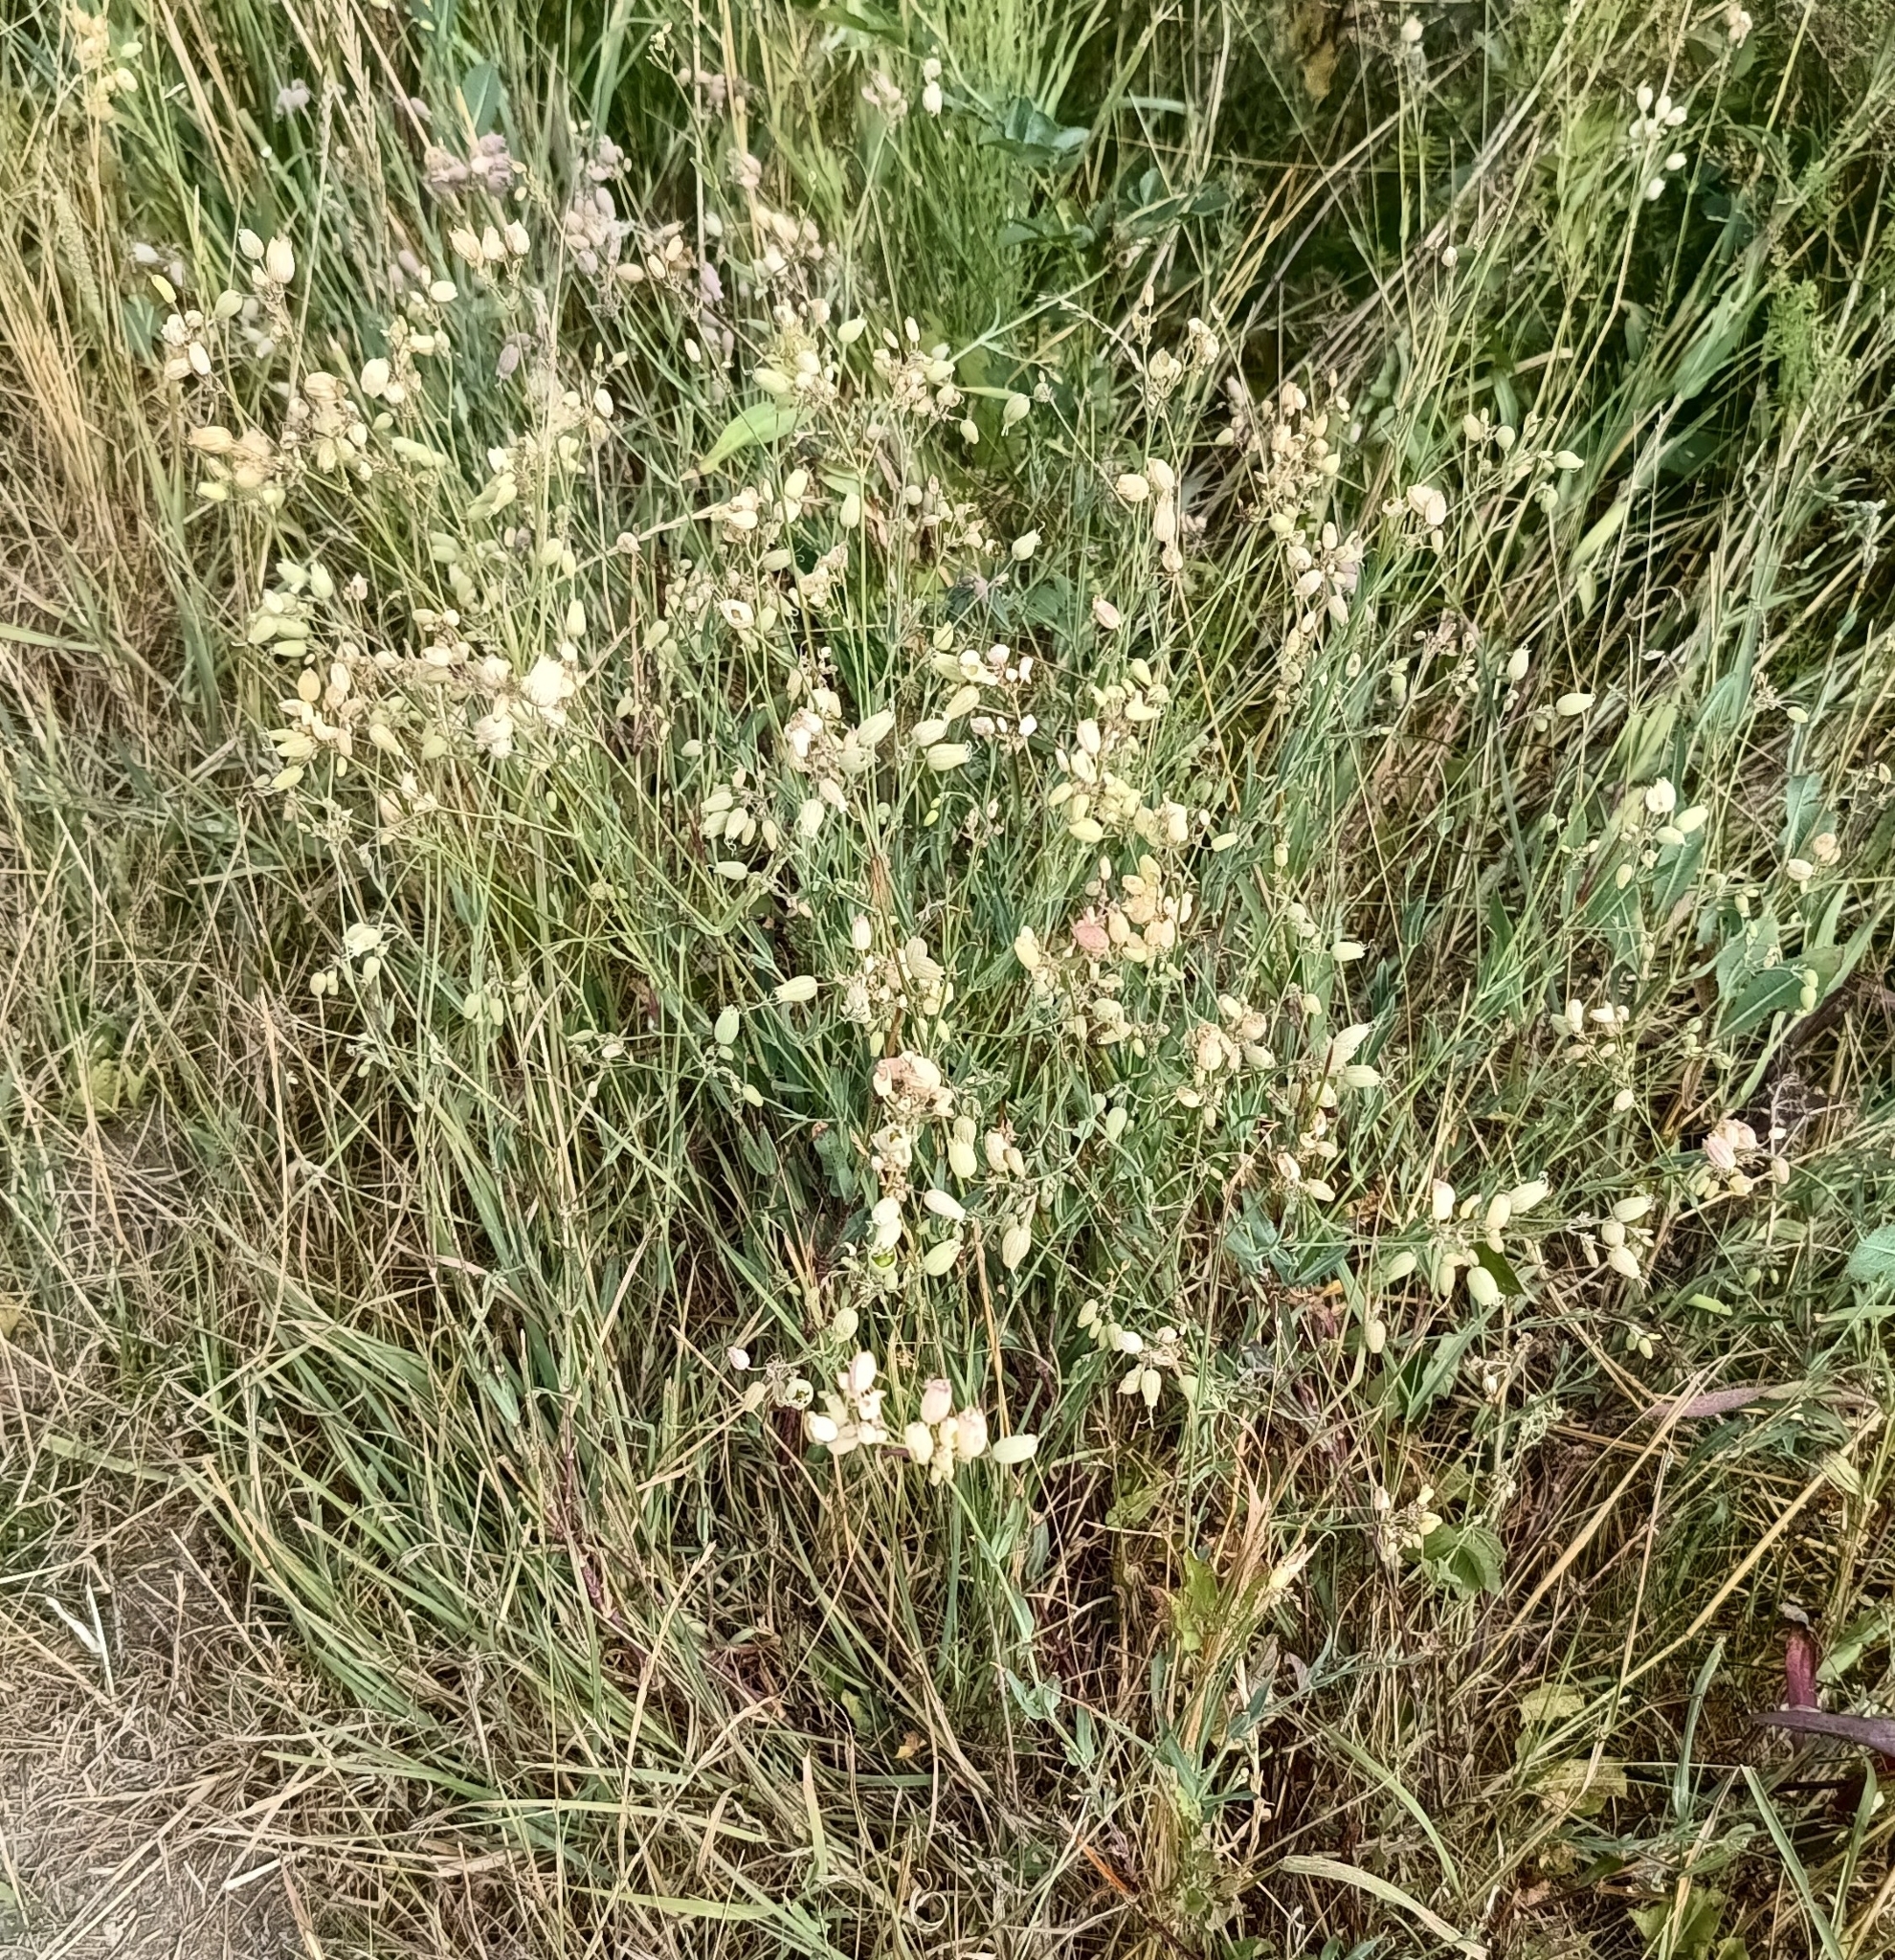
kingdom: Plantae
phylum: Tracheophyta
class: Magnoliopsida
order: Caryophyllales
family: Caryophyllaceae
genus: Silene
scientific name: Silene vulgaris
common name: Bladder campion
